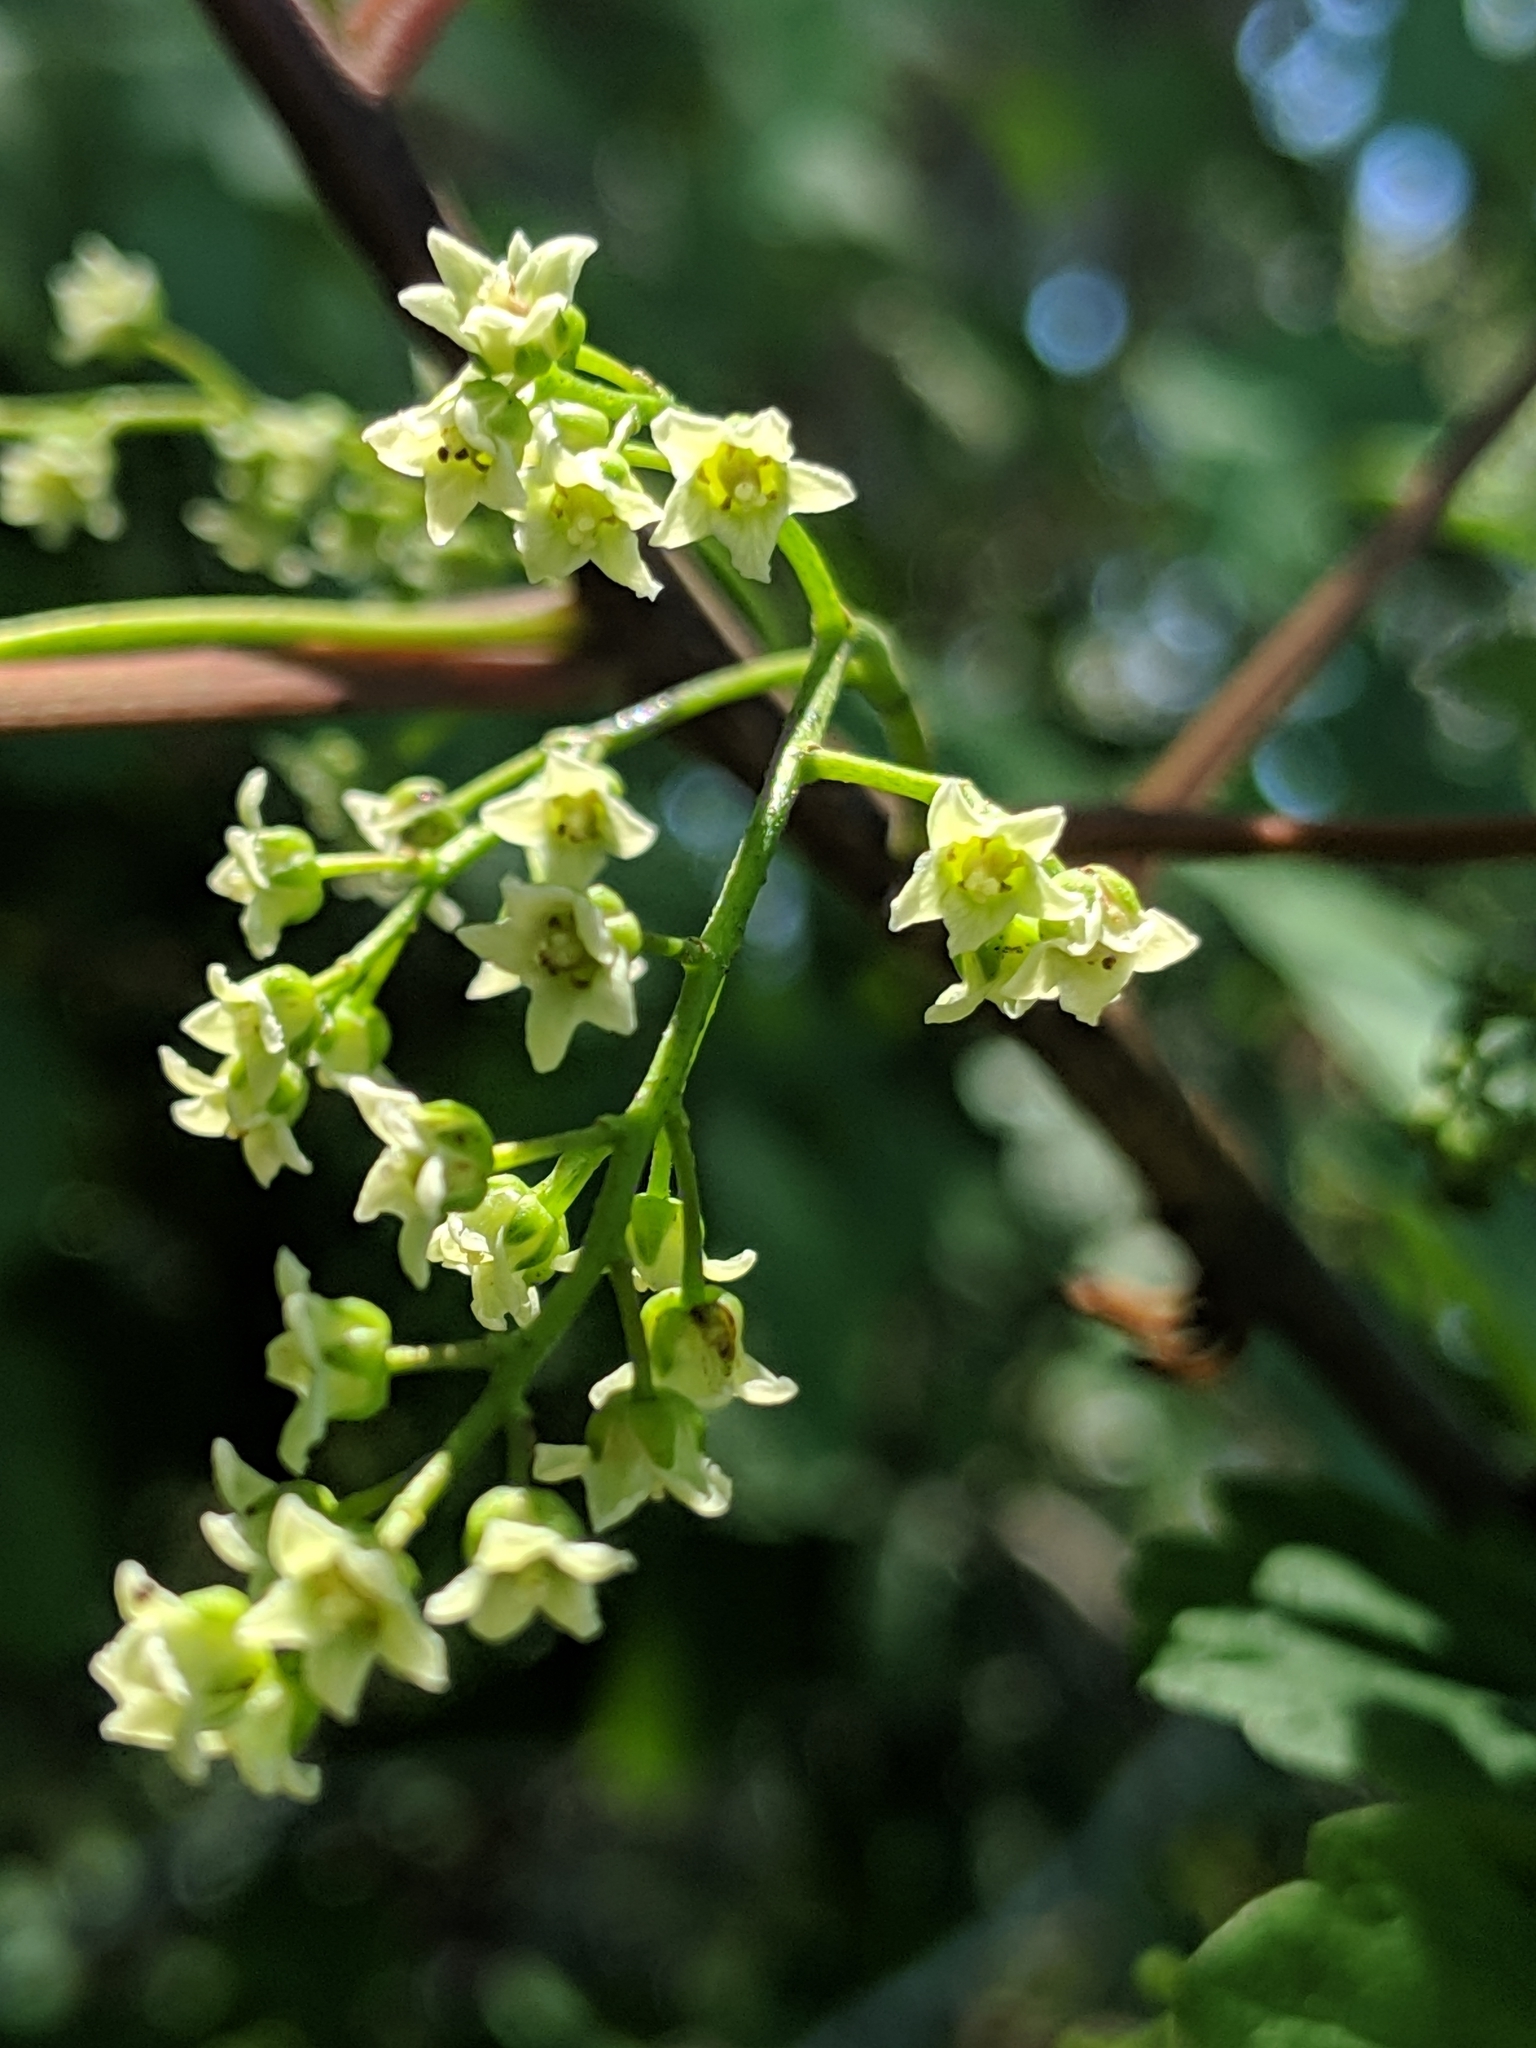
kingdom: Plantae
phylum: Tracheophyta
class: Magnoliopsida
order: Sapindales
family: Anacardiaceae
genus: Toxicodendron
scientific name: Toxicodendron diversilobum
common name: Pacific poison-oak
